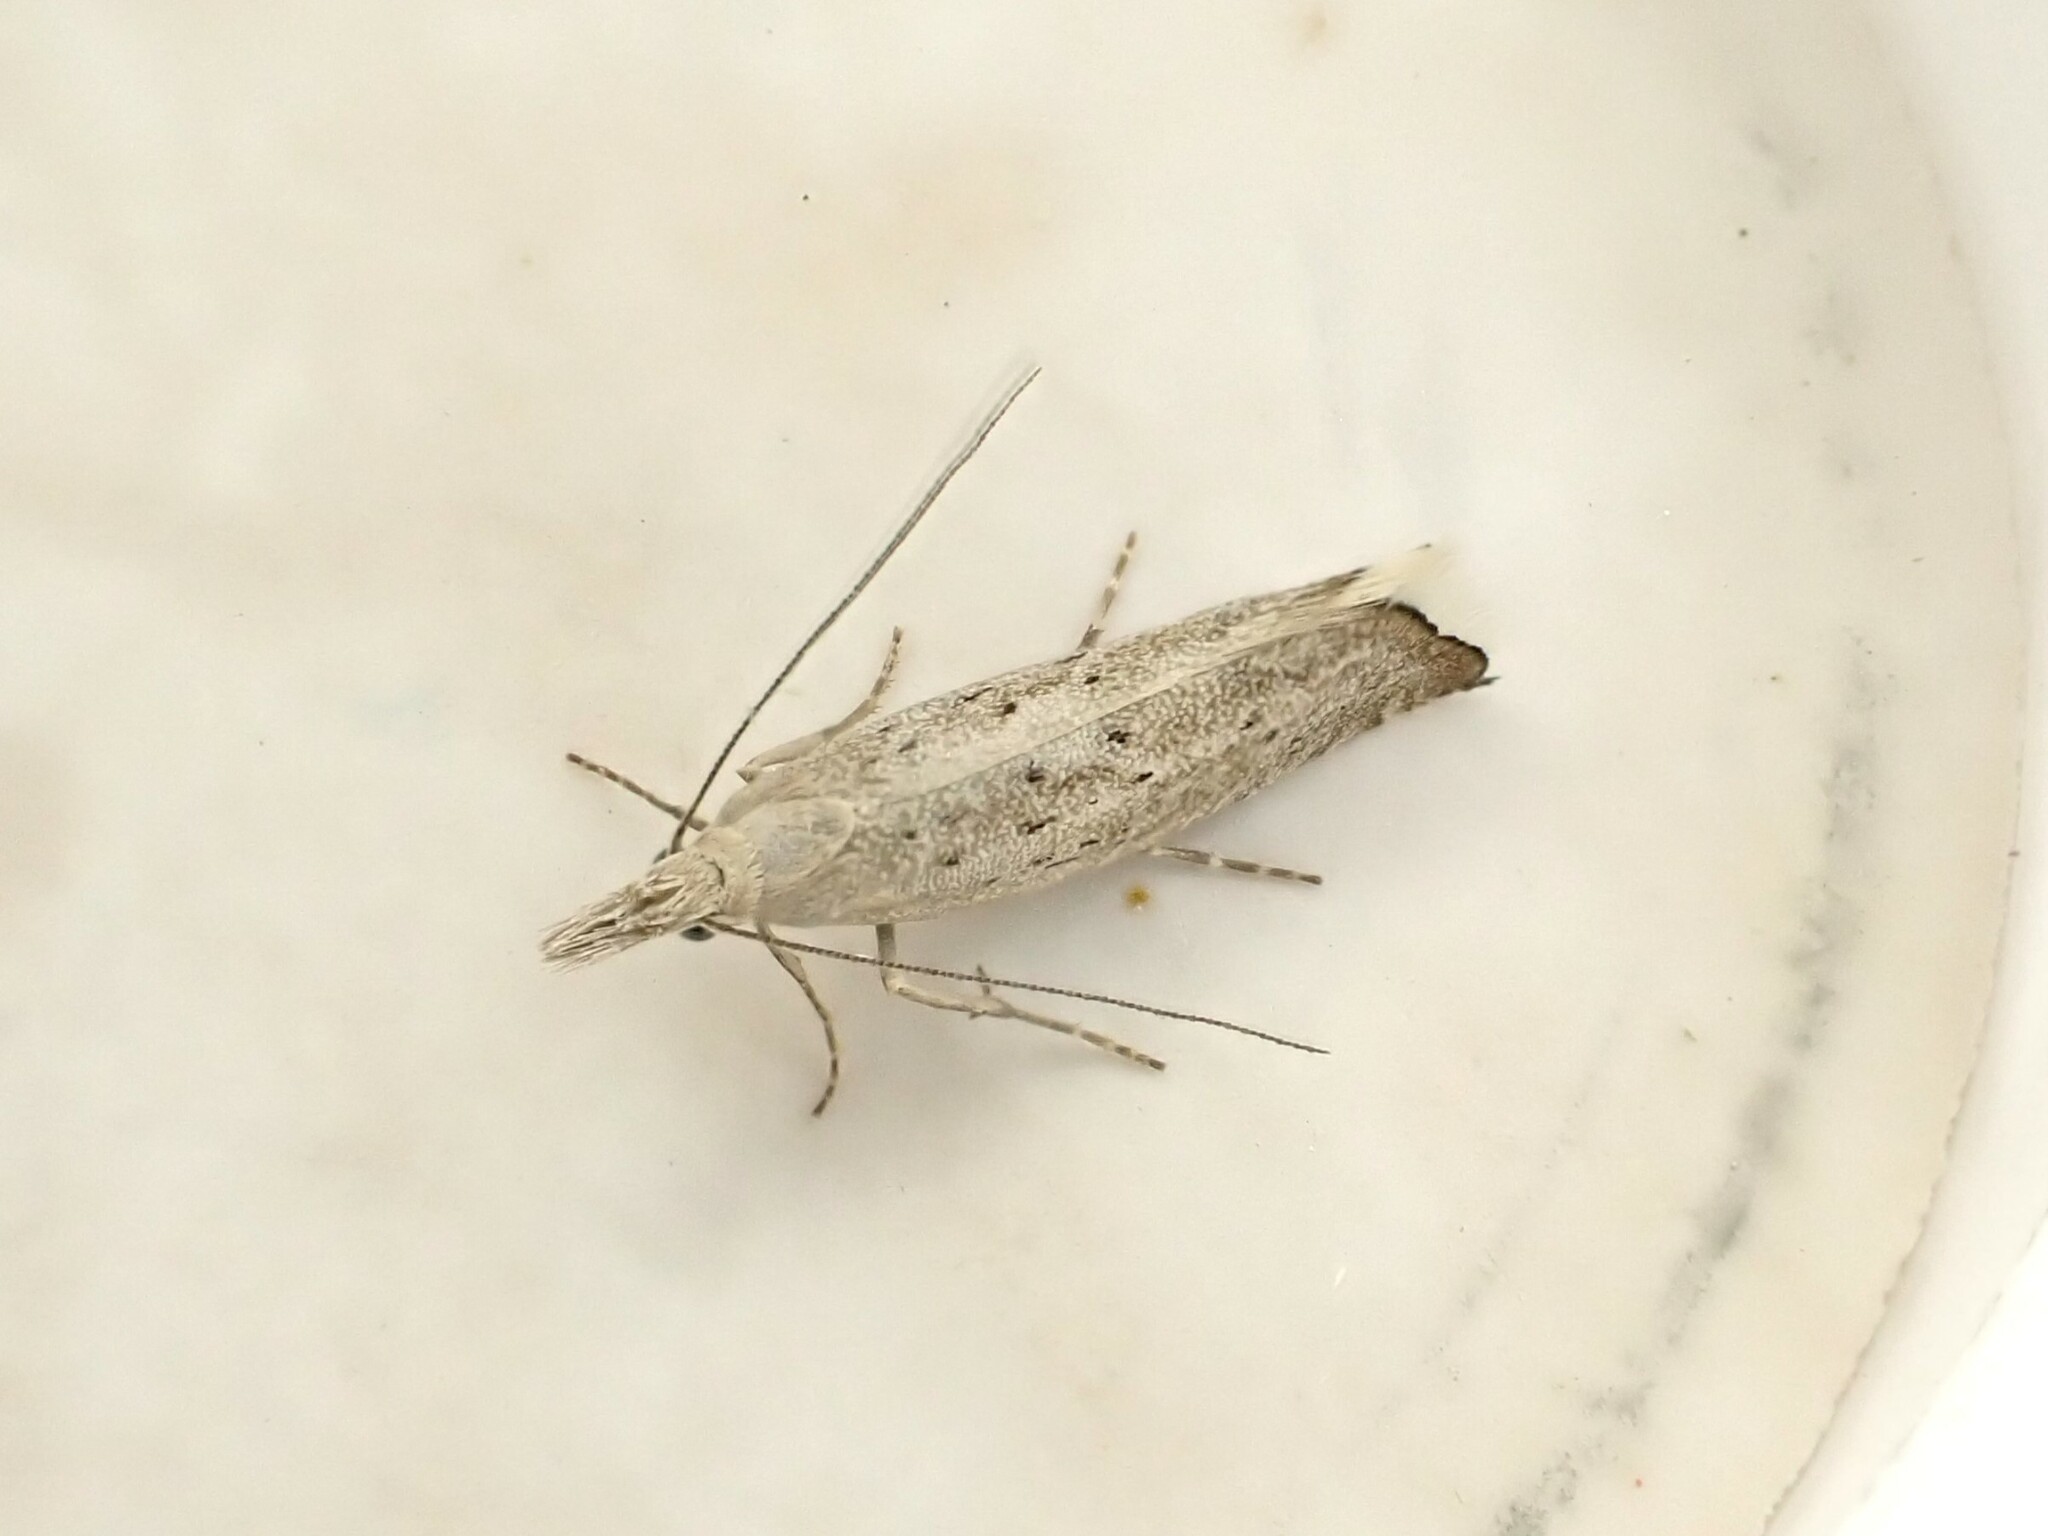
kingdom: Animalia
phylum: Arthropoda
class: Insecta
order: Lepidoptera
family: Glyphipterigidae
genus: Glyphipterix
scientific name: Glyphipterix achlyoessa
